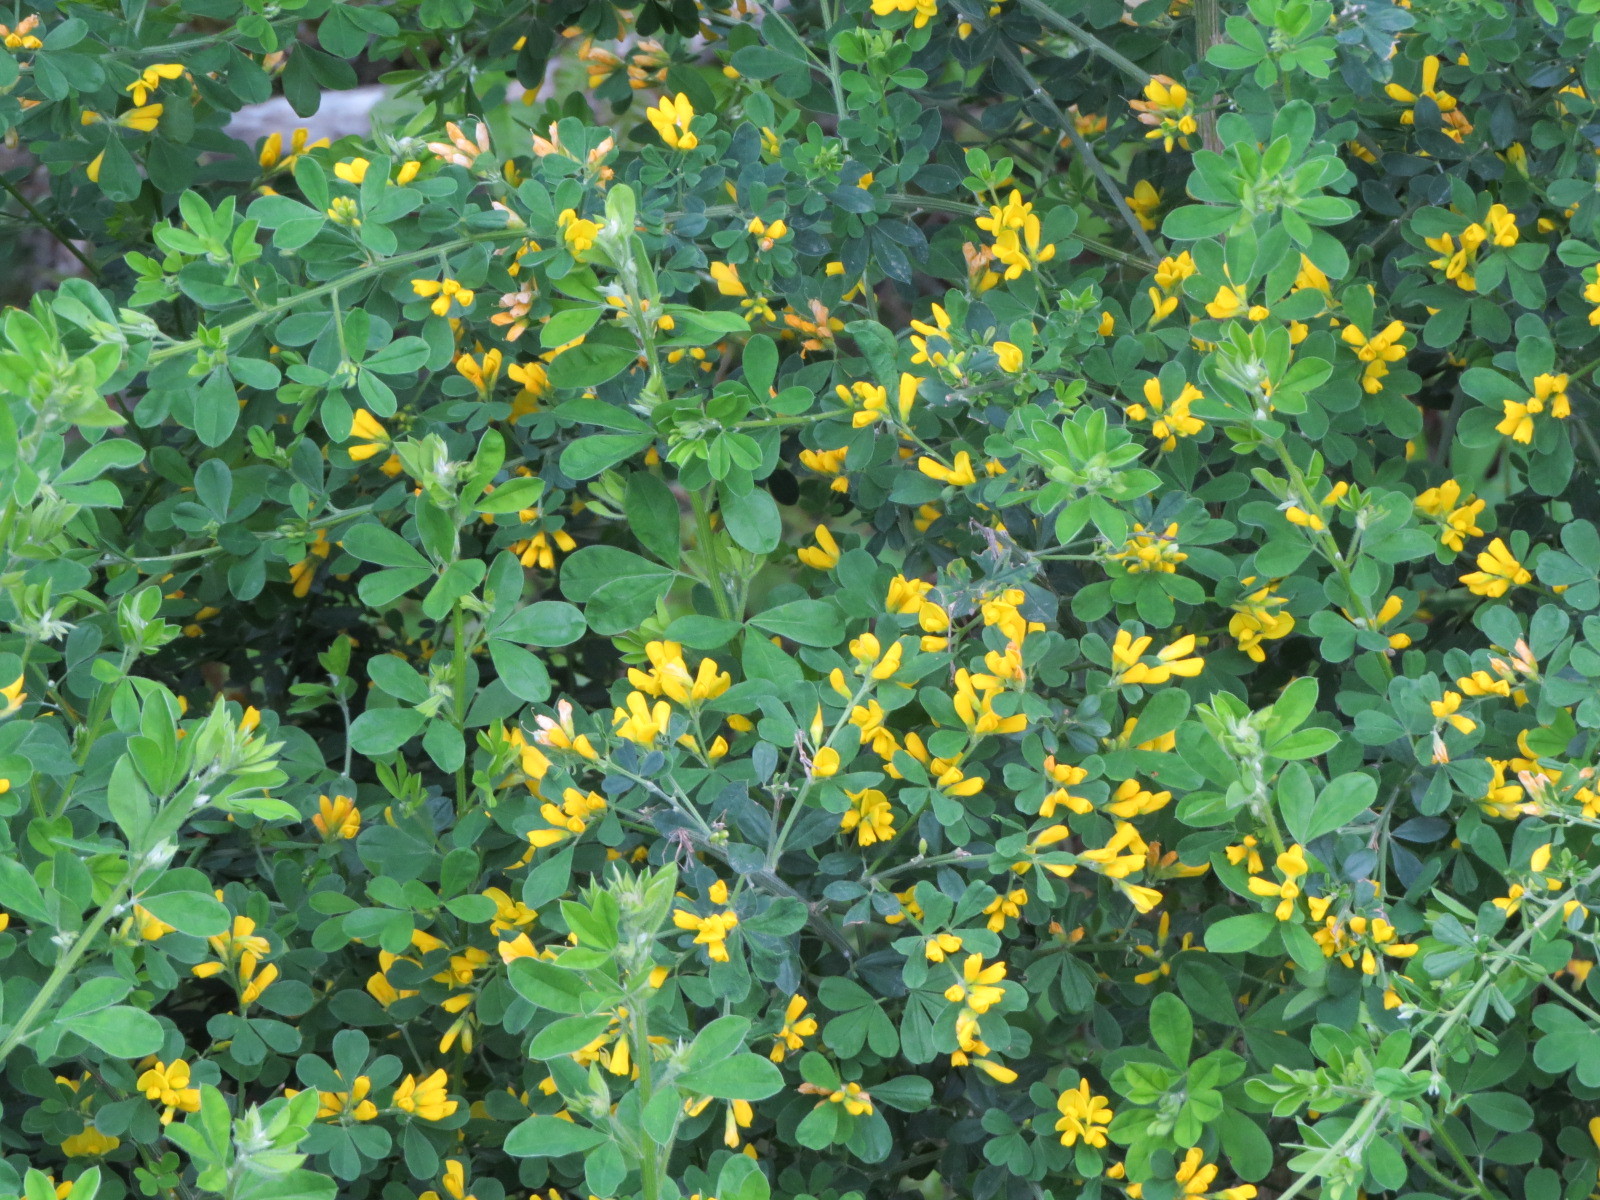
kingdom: Plantae
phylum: Tracheophyta
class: Magnoliopsida
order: Fabales
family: Fabaceae
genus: Genista
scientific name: Genista monspessulana
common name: Montpellier broom
